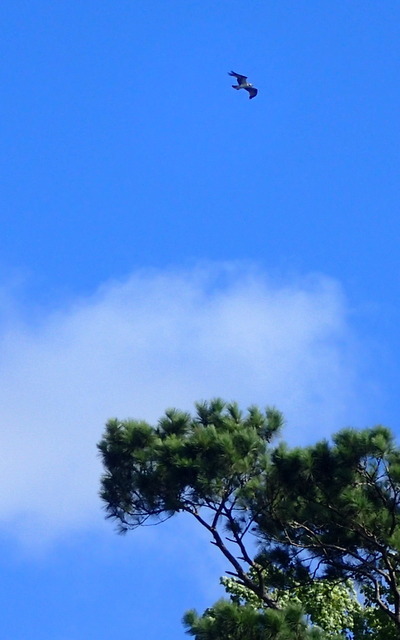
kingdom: Animalia
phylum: Chordata
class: Aves
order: Accipitriformes
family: Pandionidae
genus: Pandion
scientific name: Pandion haliaetus
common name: Osprey
